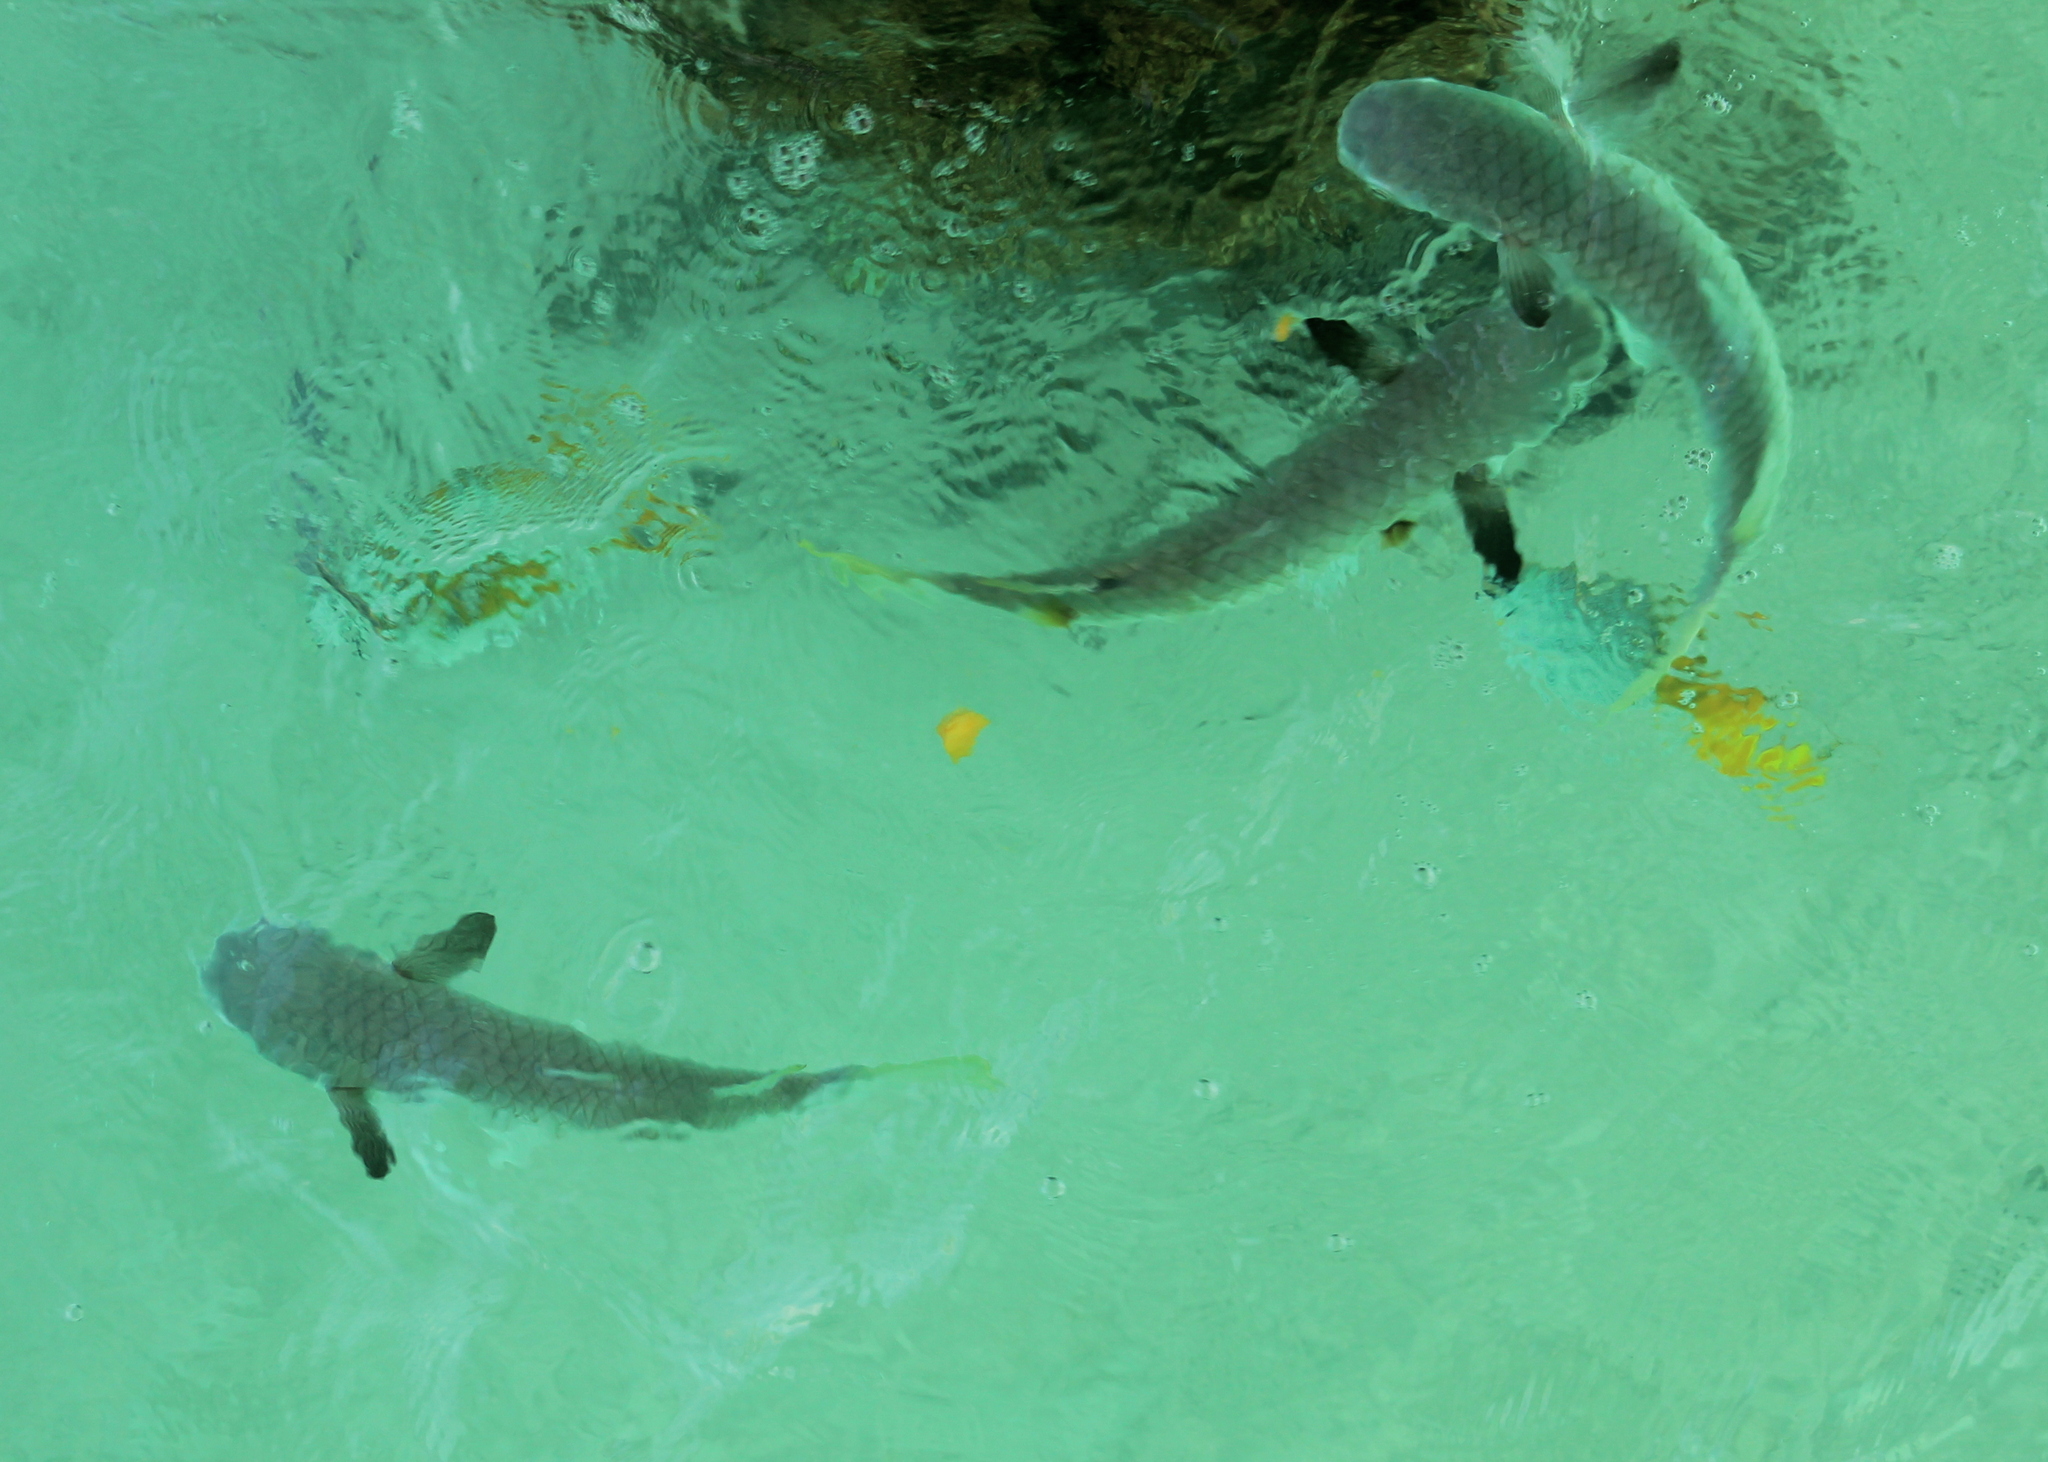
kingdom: Animalia
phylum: Chordata
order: Mugiliformes
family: Mugilidae
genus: Ellochelon
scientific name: Ellochelon vaigiensis
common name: Squaretail mullet
